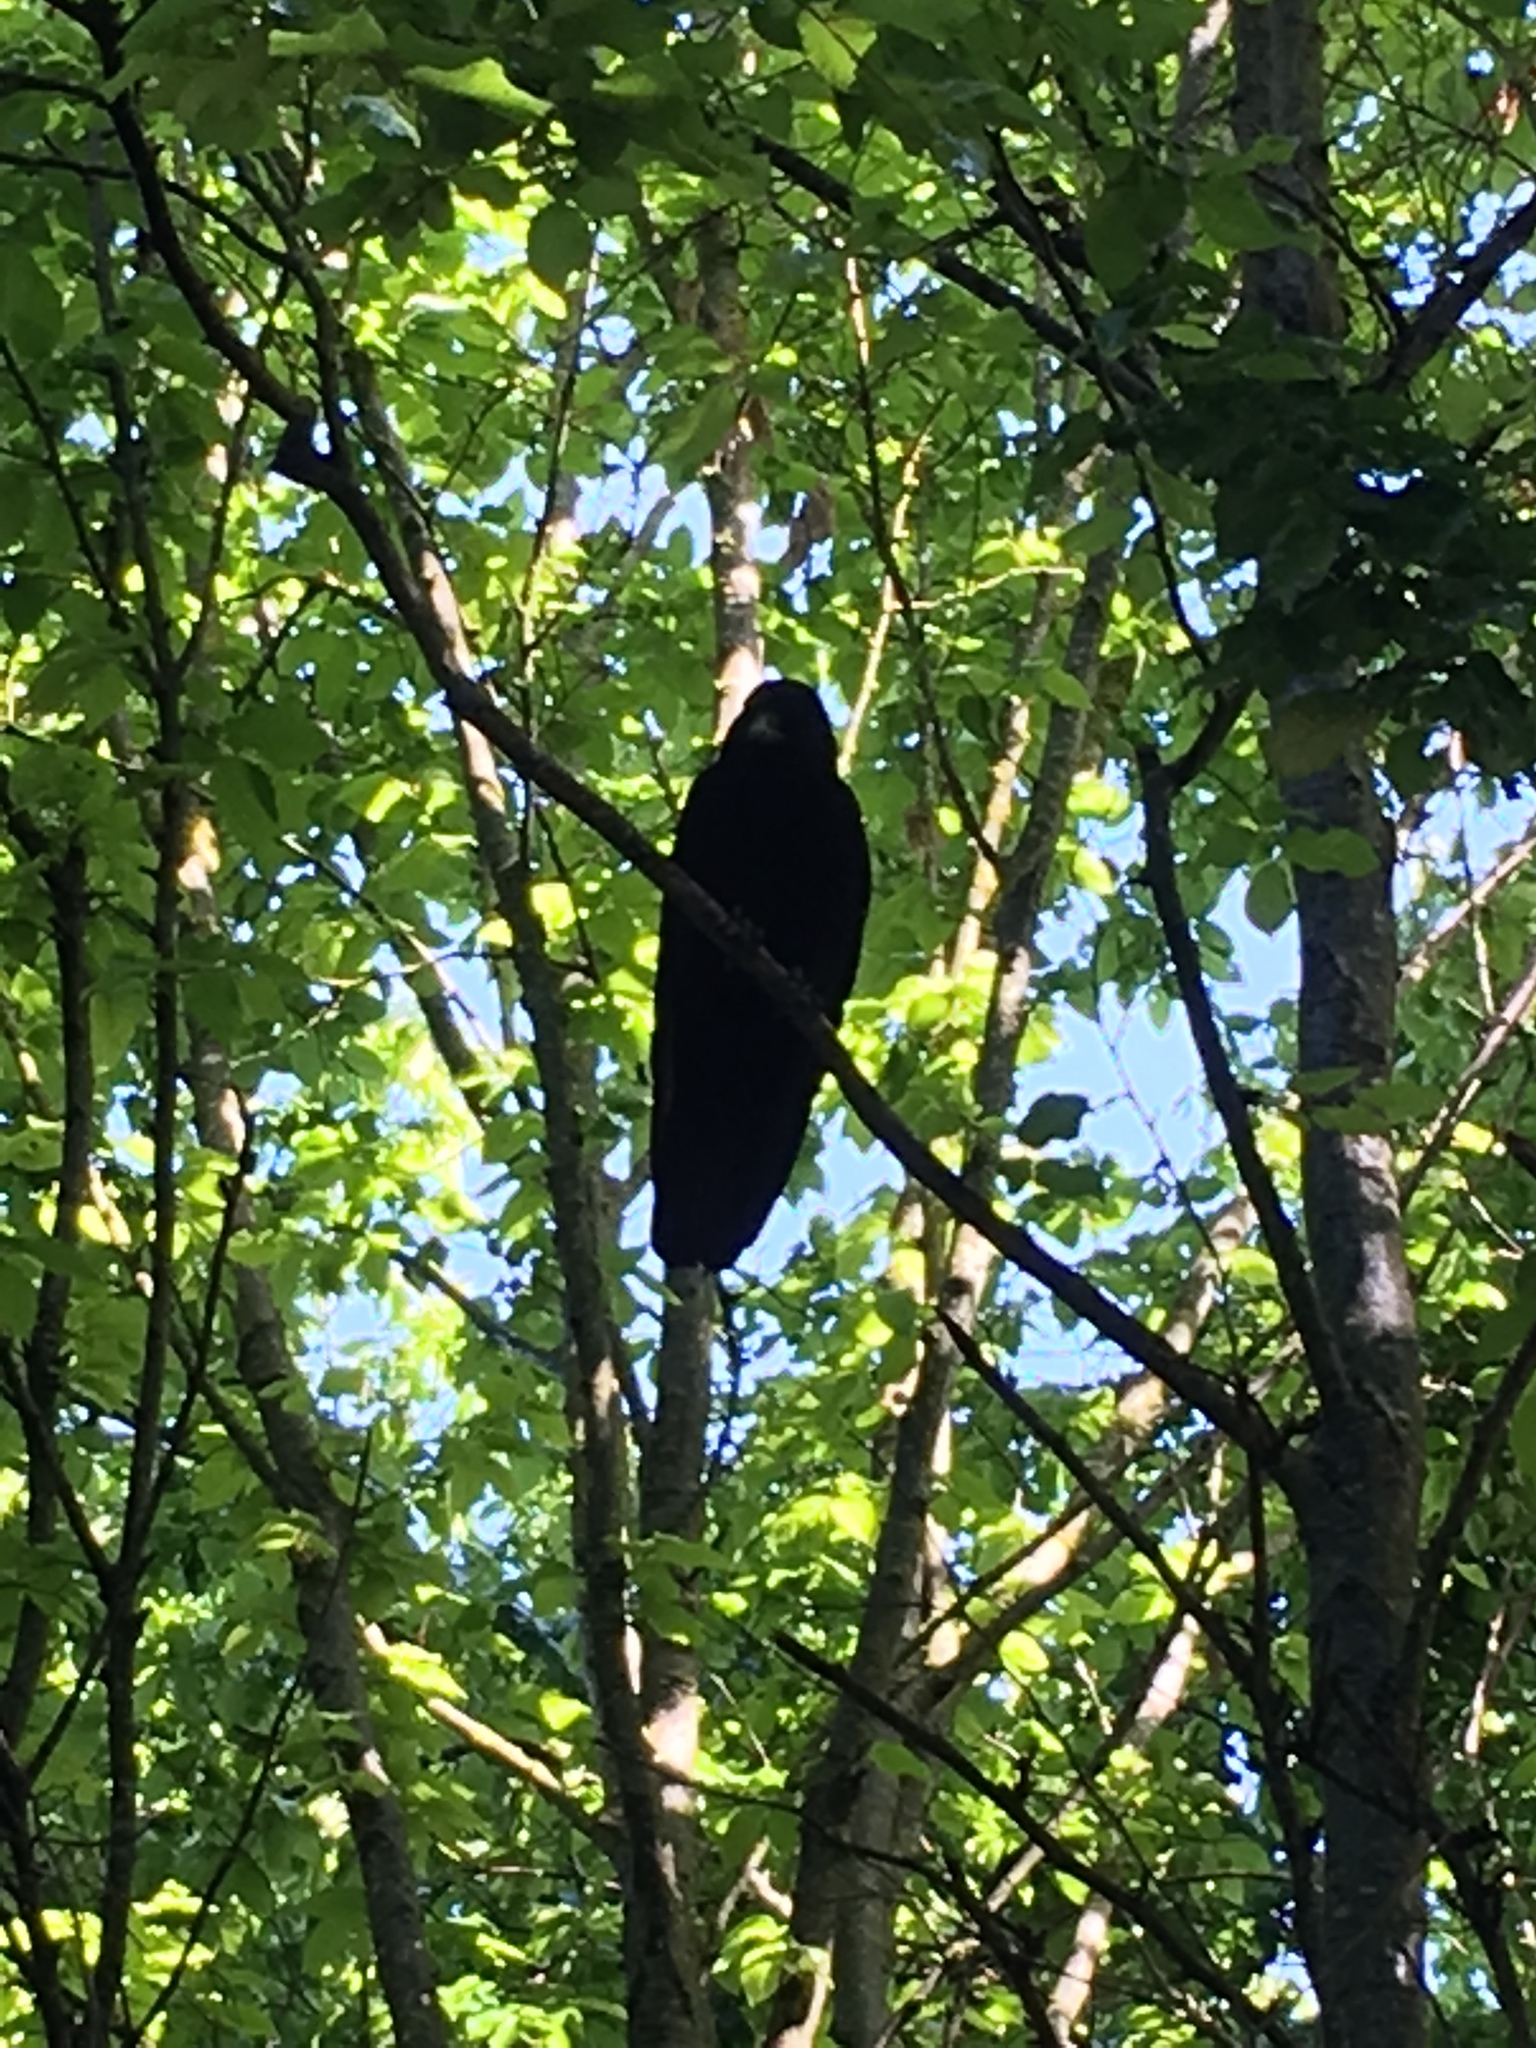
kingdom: Animalia
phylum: Chordata
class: Aves
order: Passeriformes
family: Corvidae
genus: Corvus
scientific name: Corvus corone
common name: Carrion crow
